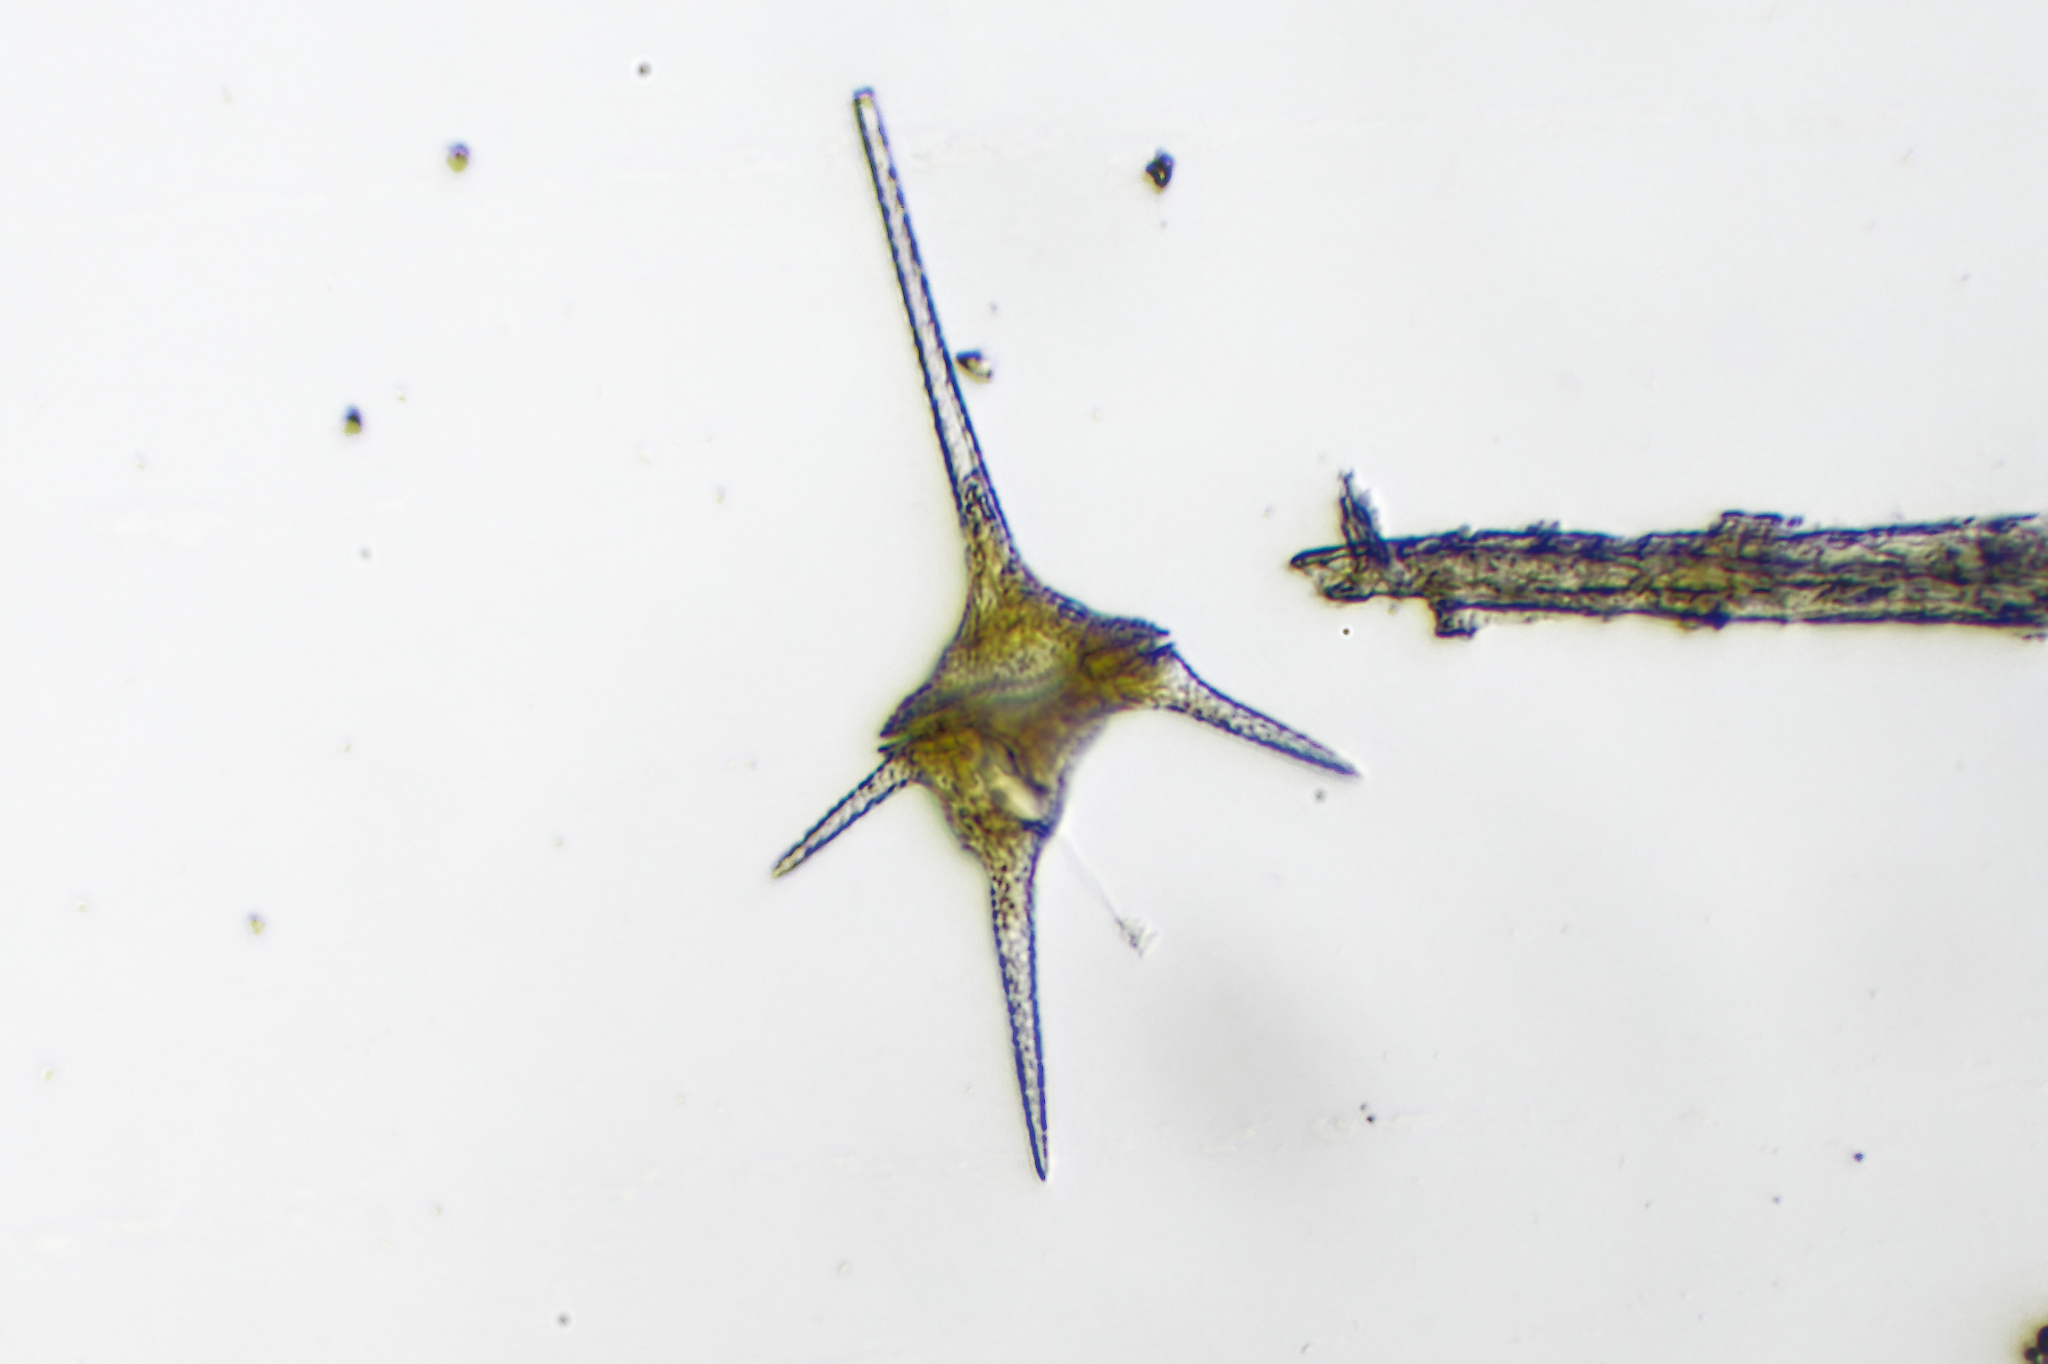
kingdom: Chromista
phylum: Myzozoa
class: Dinophyceae
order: Gonyaulacales
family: Ceratiaceae
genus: Ceratium
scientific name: Ceratium hirundinella
